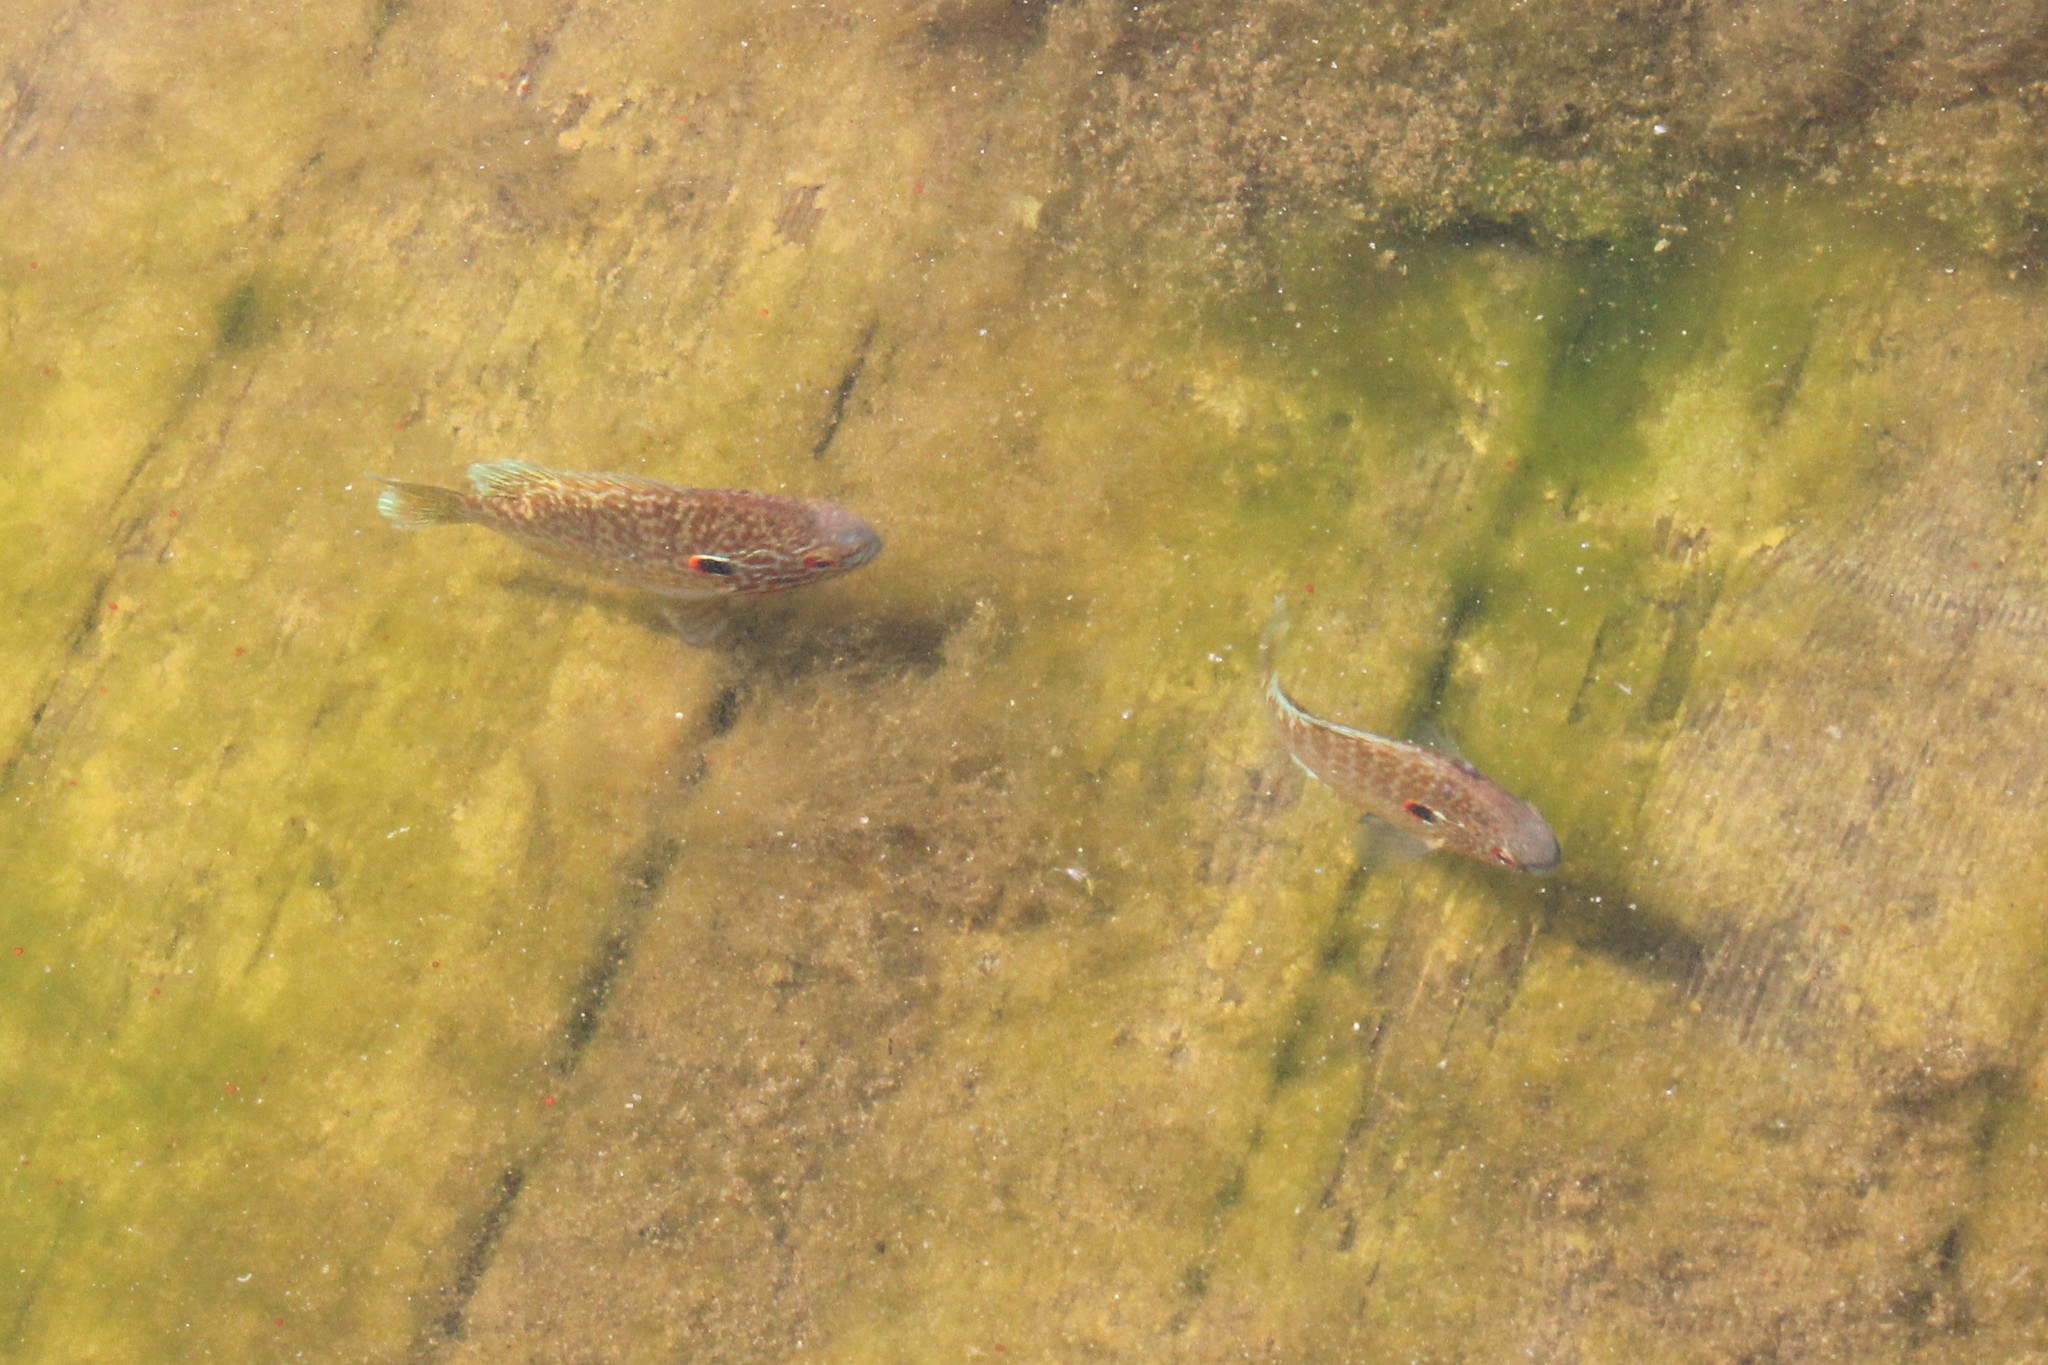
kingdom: Animalia
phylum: Chordata
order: Perciformes
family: Centrarchidae
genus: Lepomis
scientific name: Lepomis peltastes
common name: Northern sunfish
